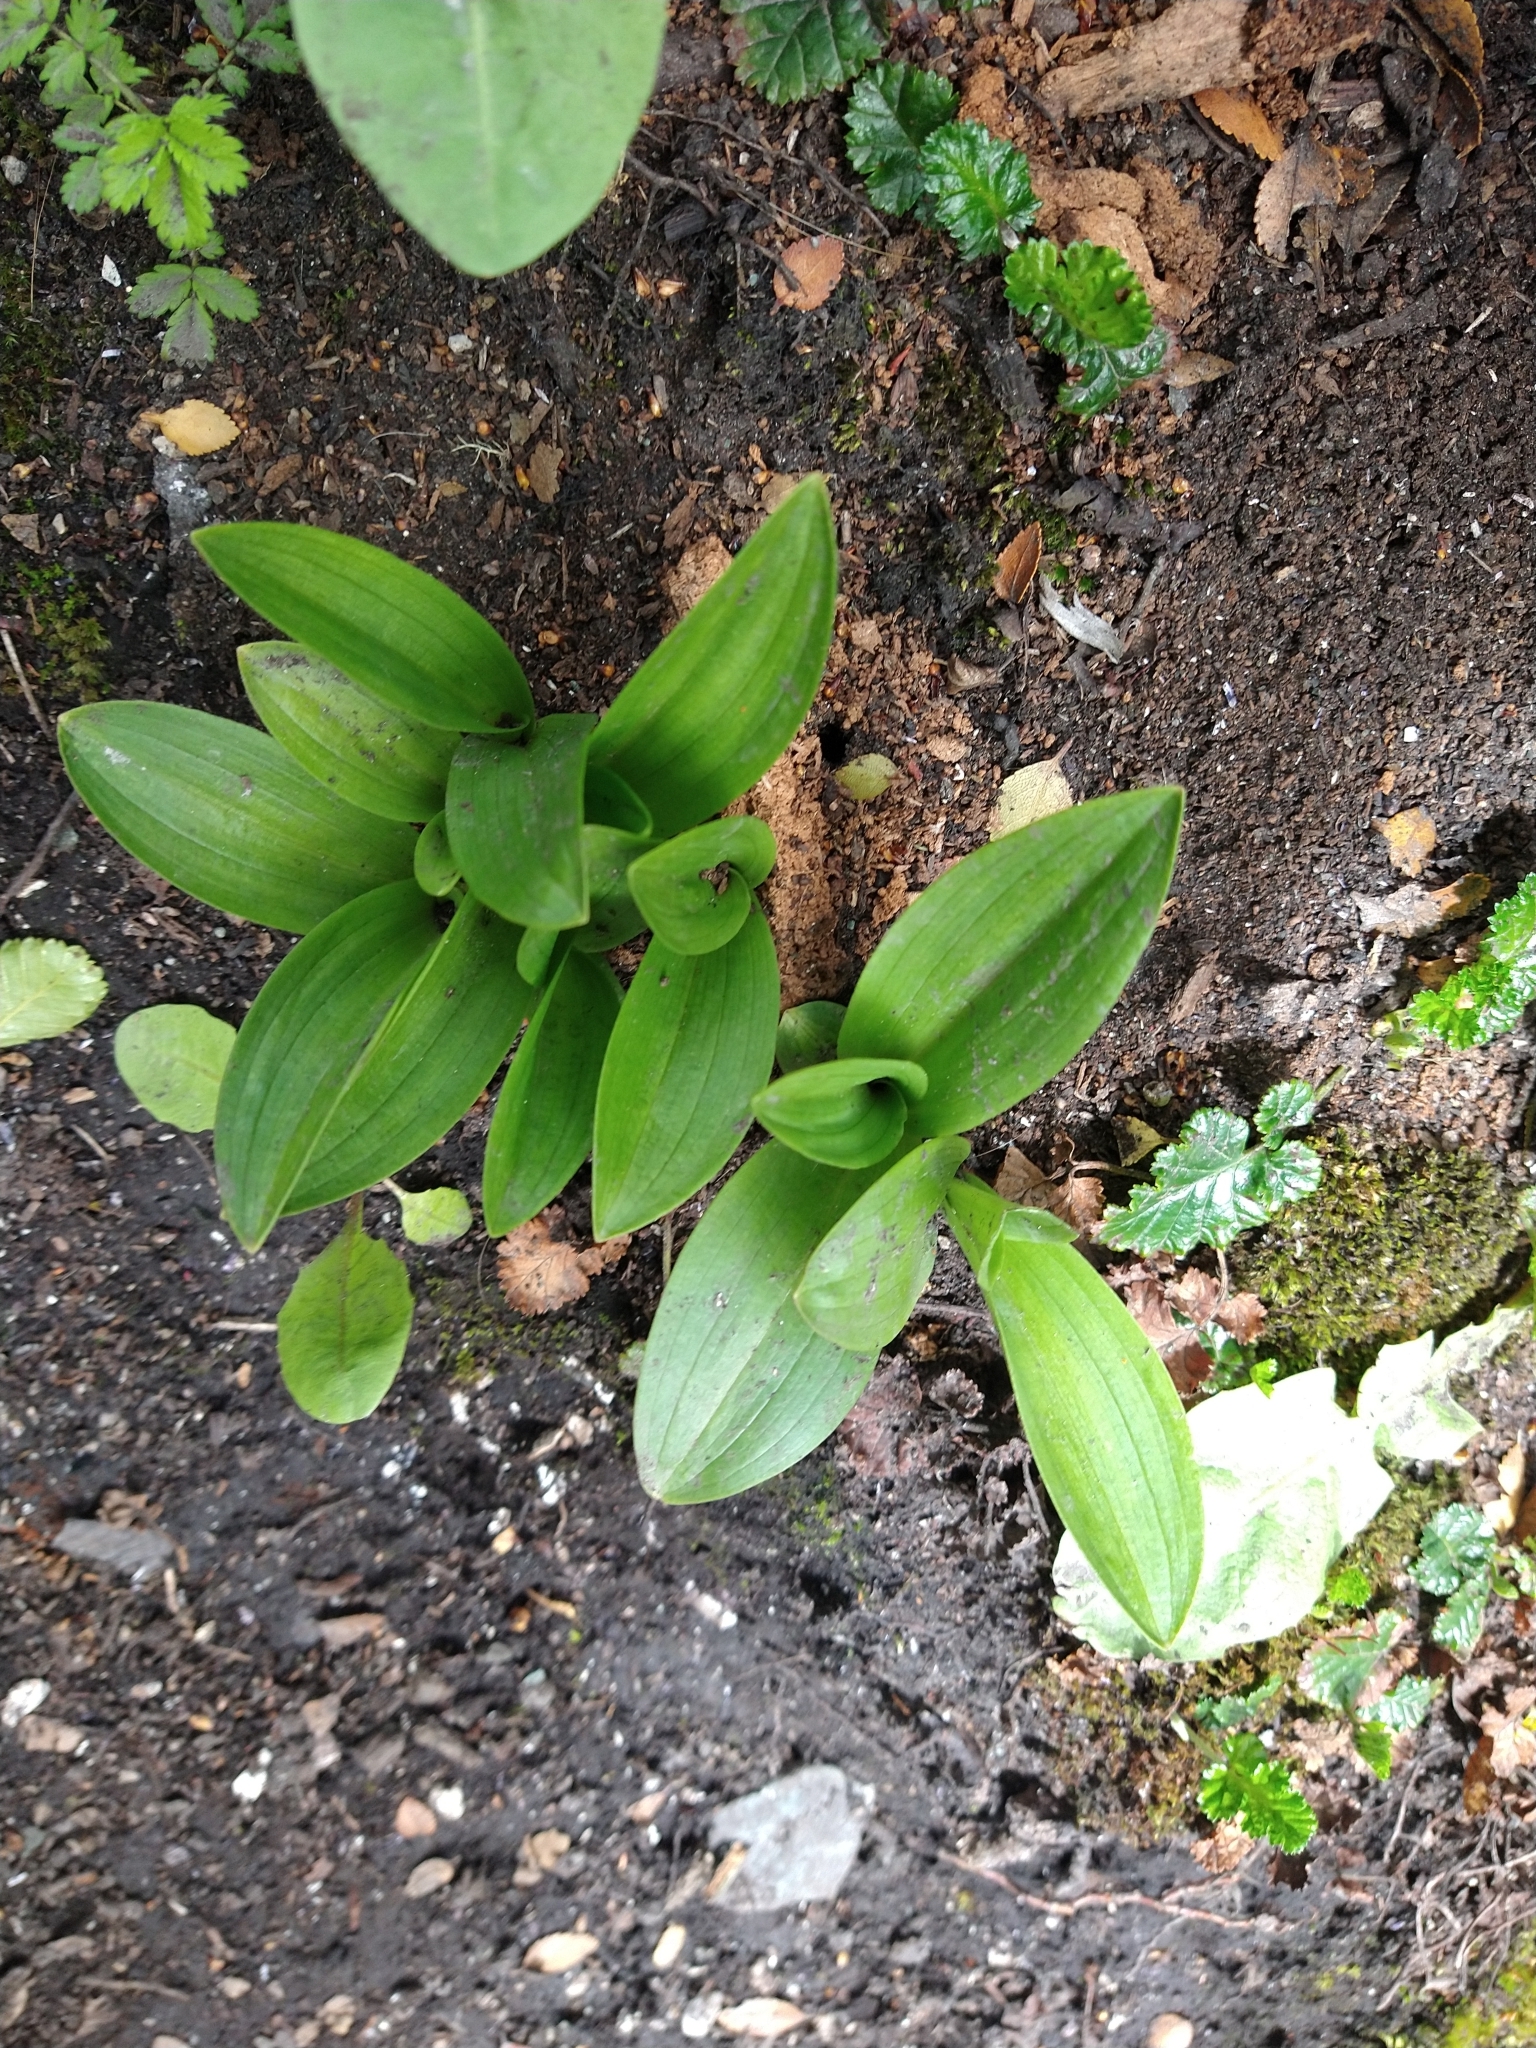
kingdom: Plantae
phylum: Tracheophyta
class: Liliopsida
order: Asparagales
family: Orchidaceae
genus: Gavilea
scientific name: Gavilea lutea
